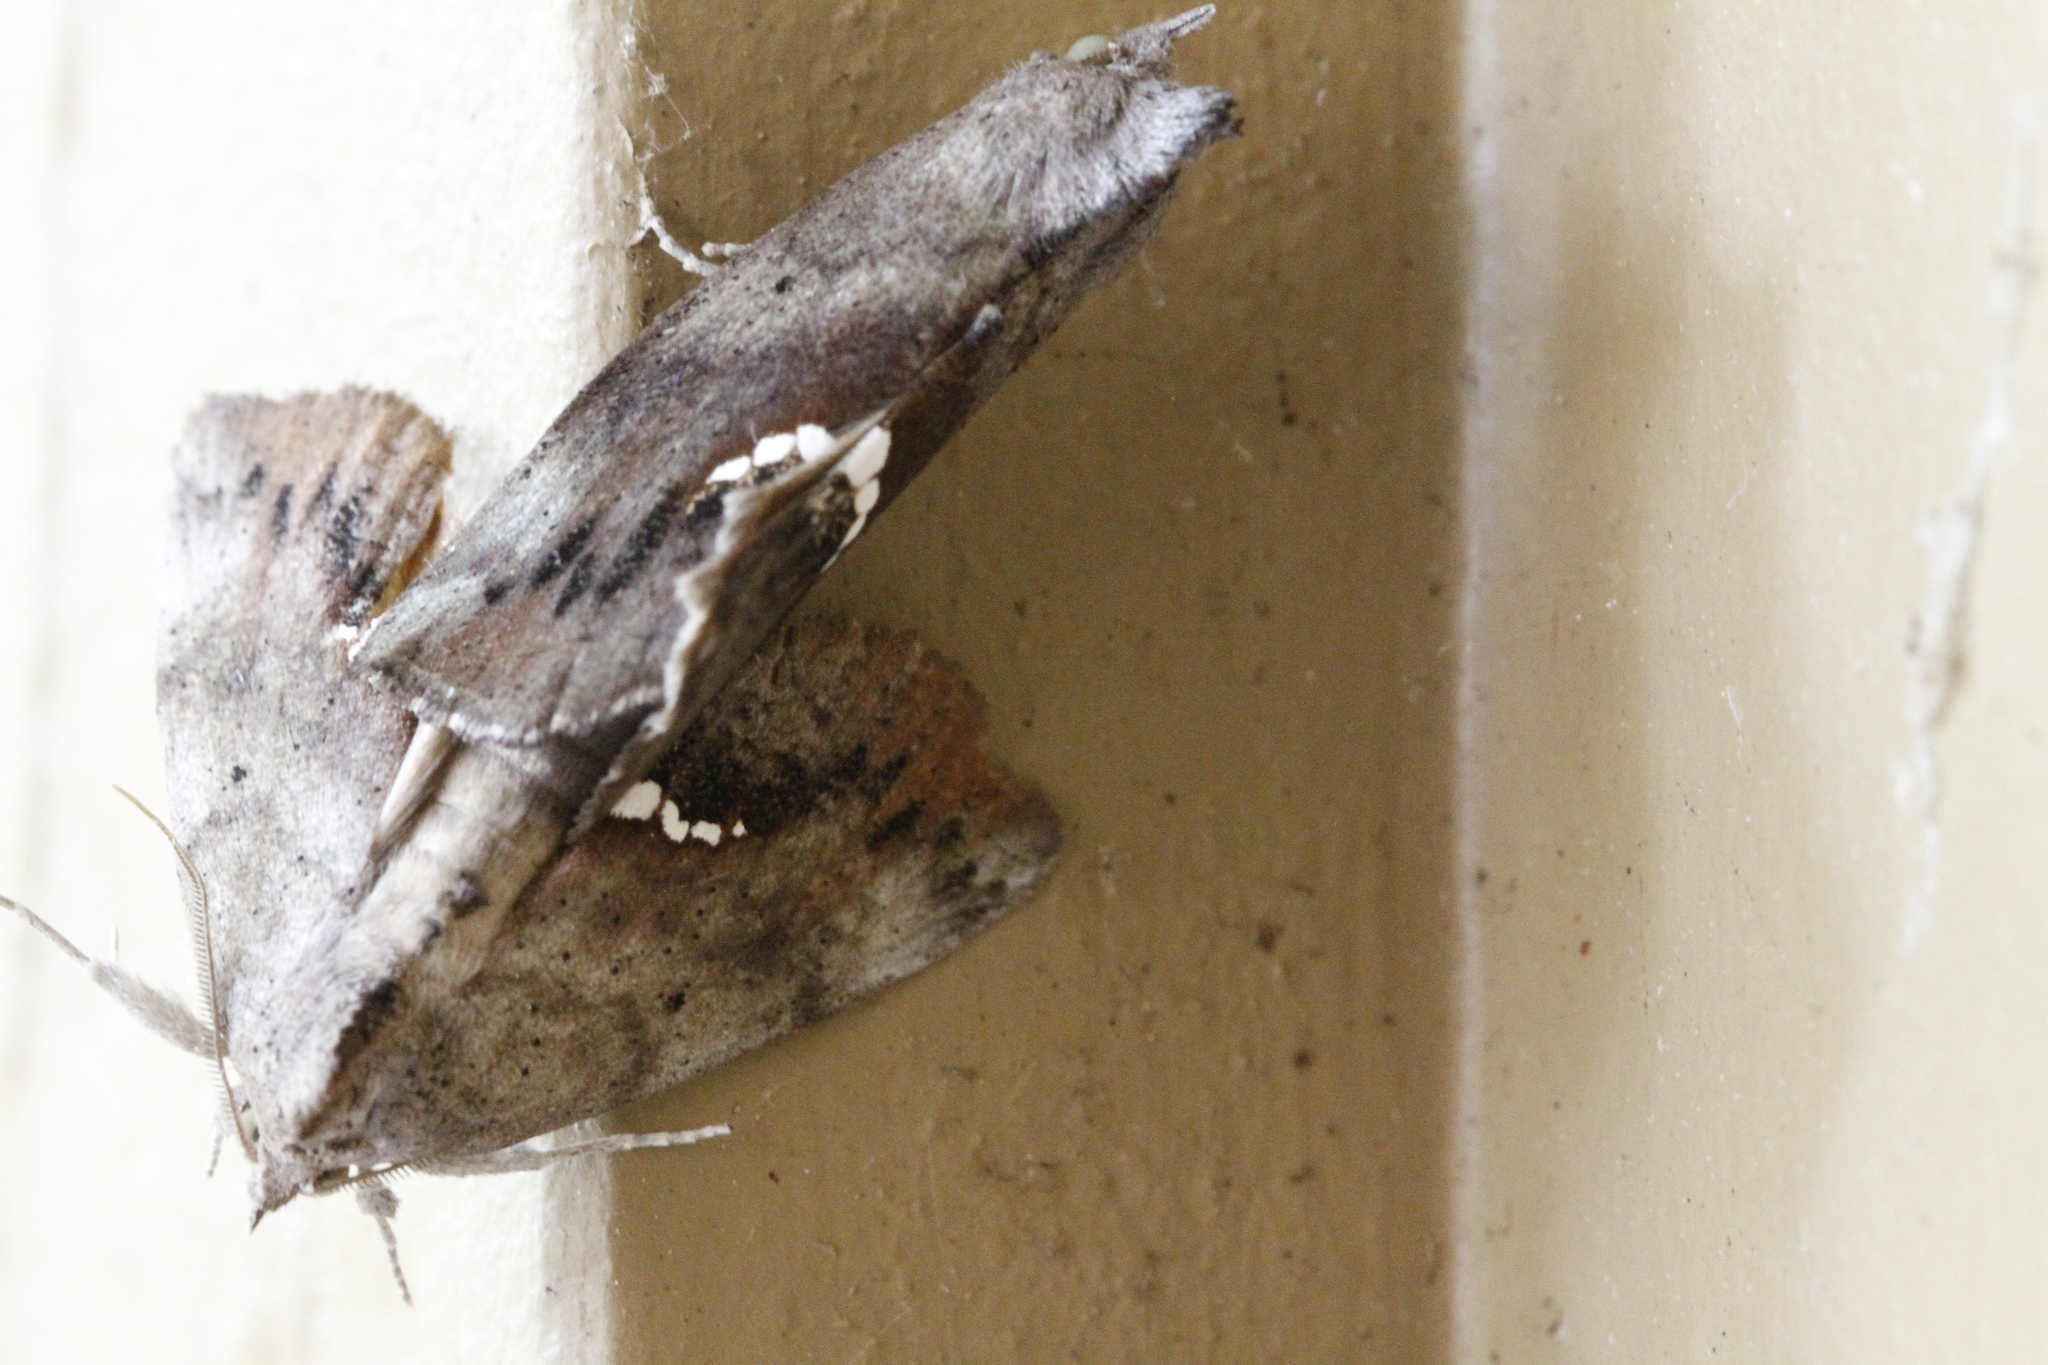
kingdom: Animalia
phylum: Arthropoda
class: Insecta
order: Lepidoptera
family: Erebidae
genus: Hypsoropha
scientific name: Hypsoropha hormos
